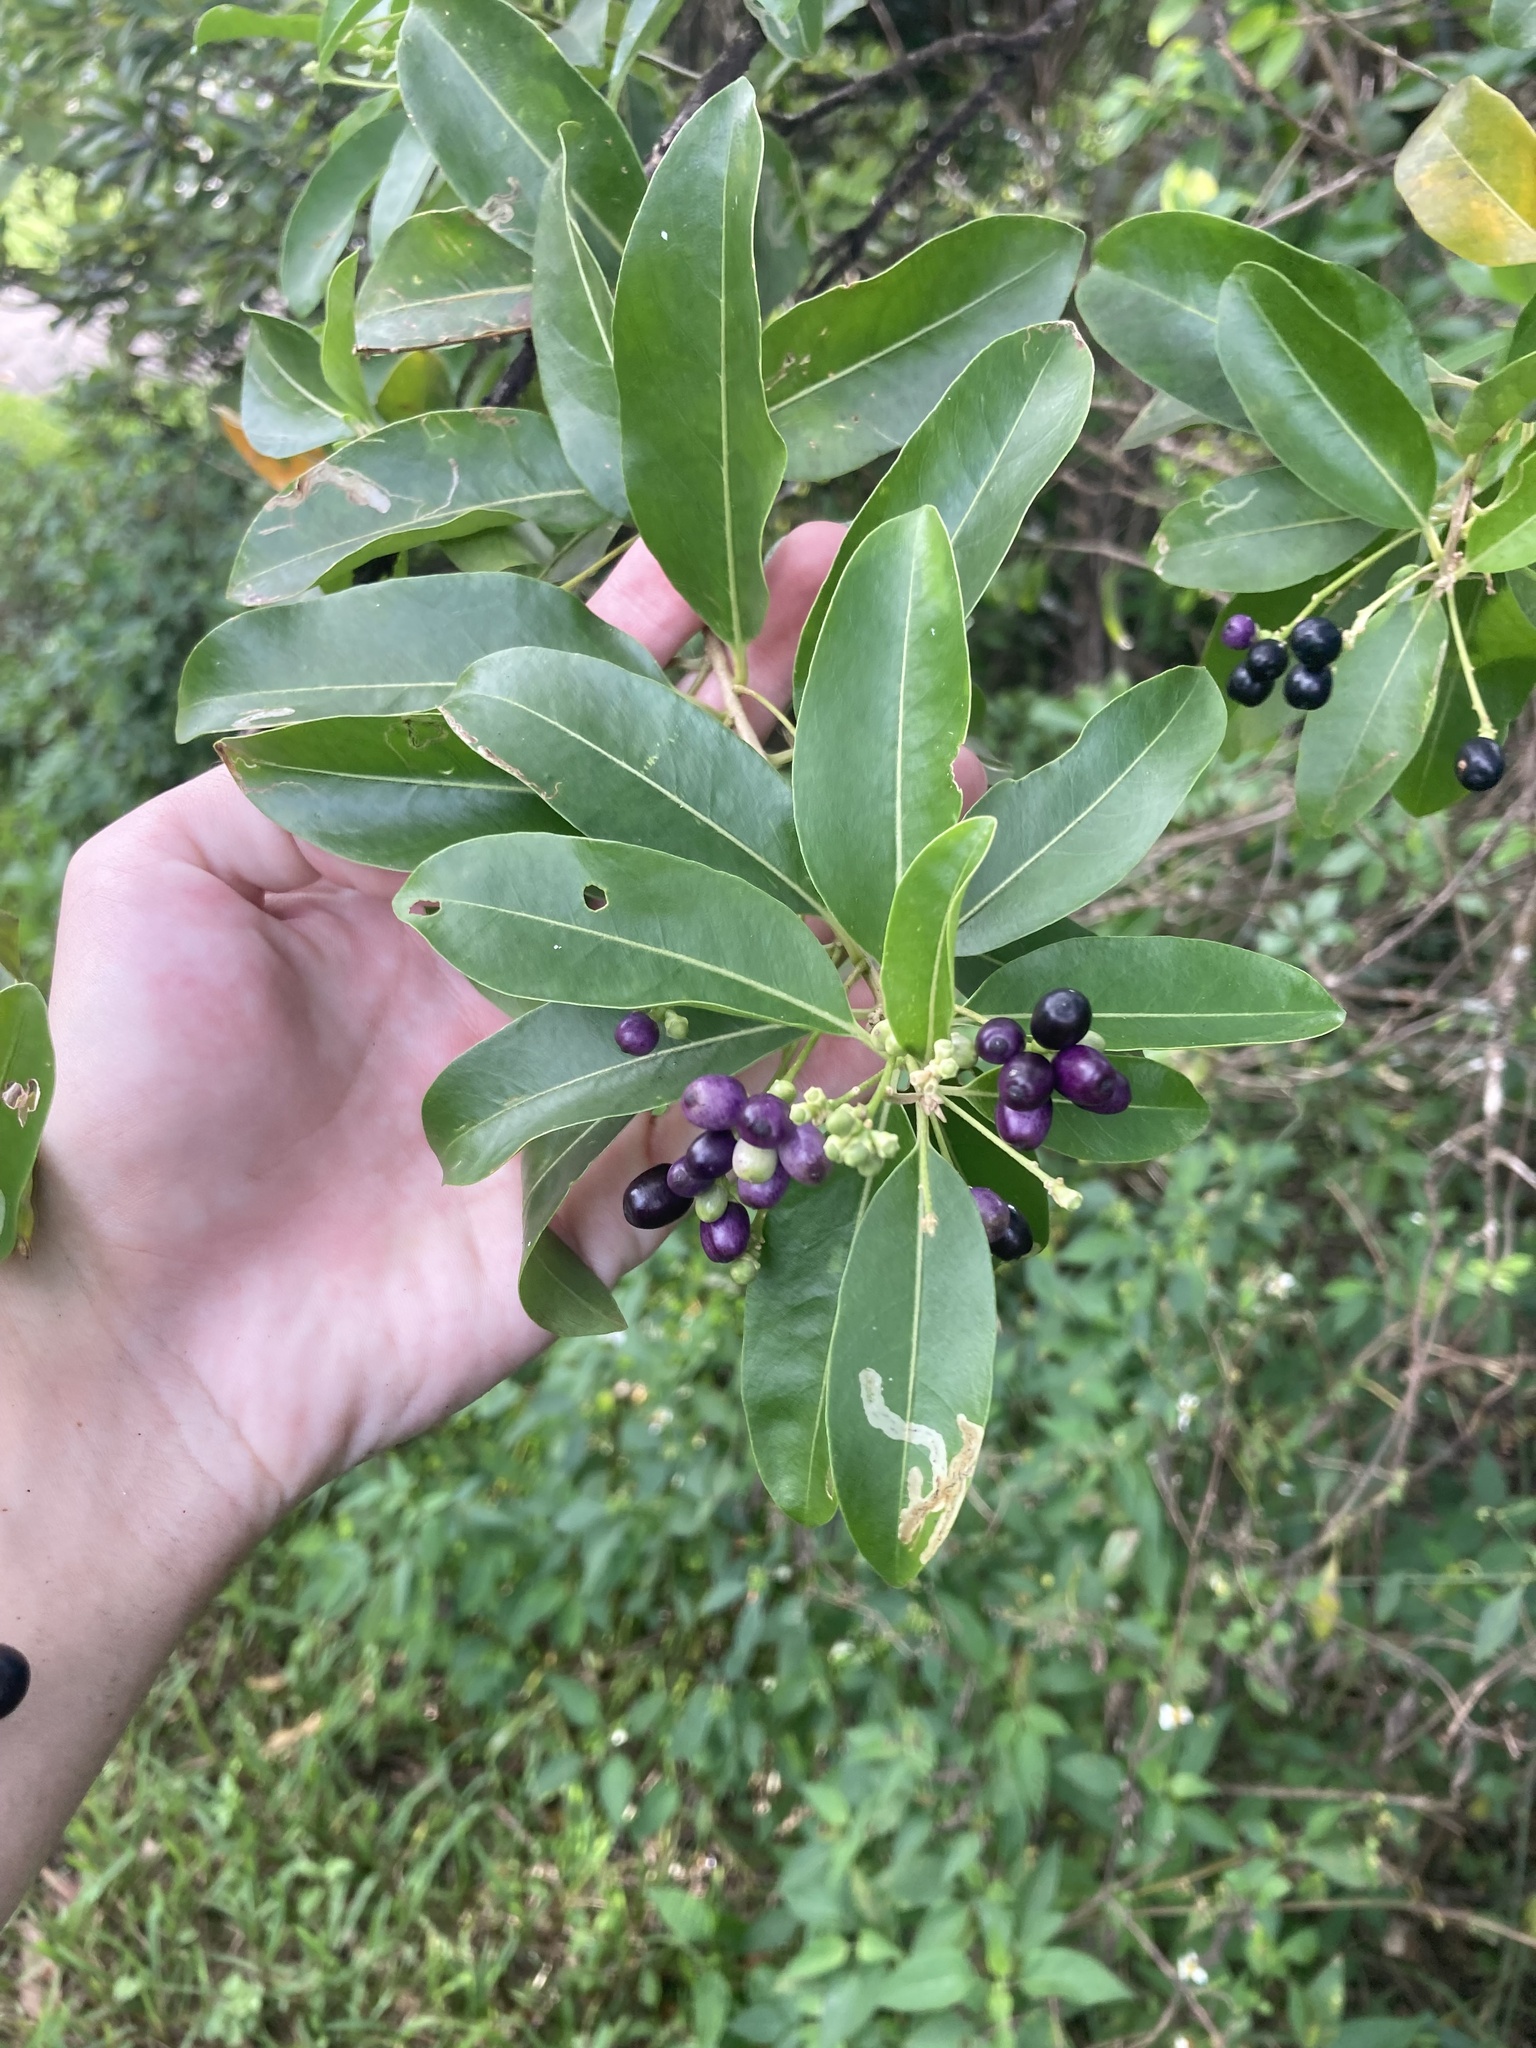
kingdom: Plantae
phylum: Tracheophyta
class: Magnoliopsida
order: Solanales
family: Solanaceae
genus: Cestrum
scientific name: Cestrum diurnum
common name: Day jessamine
